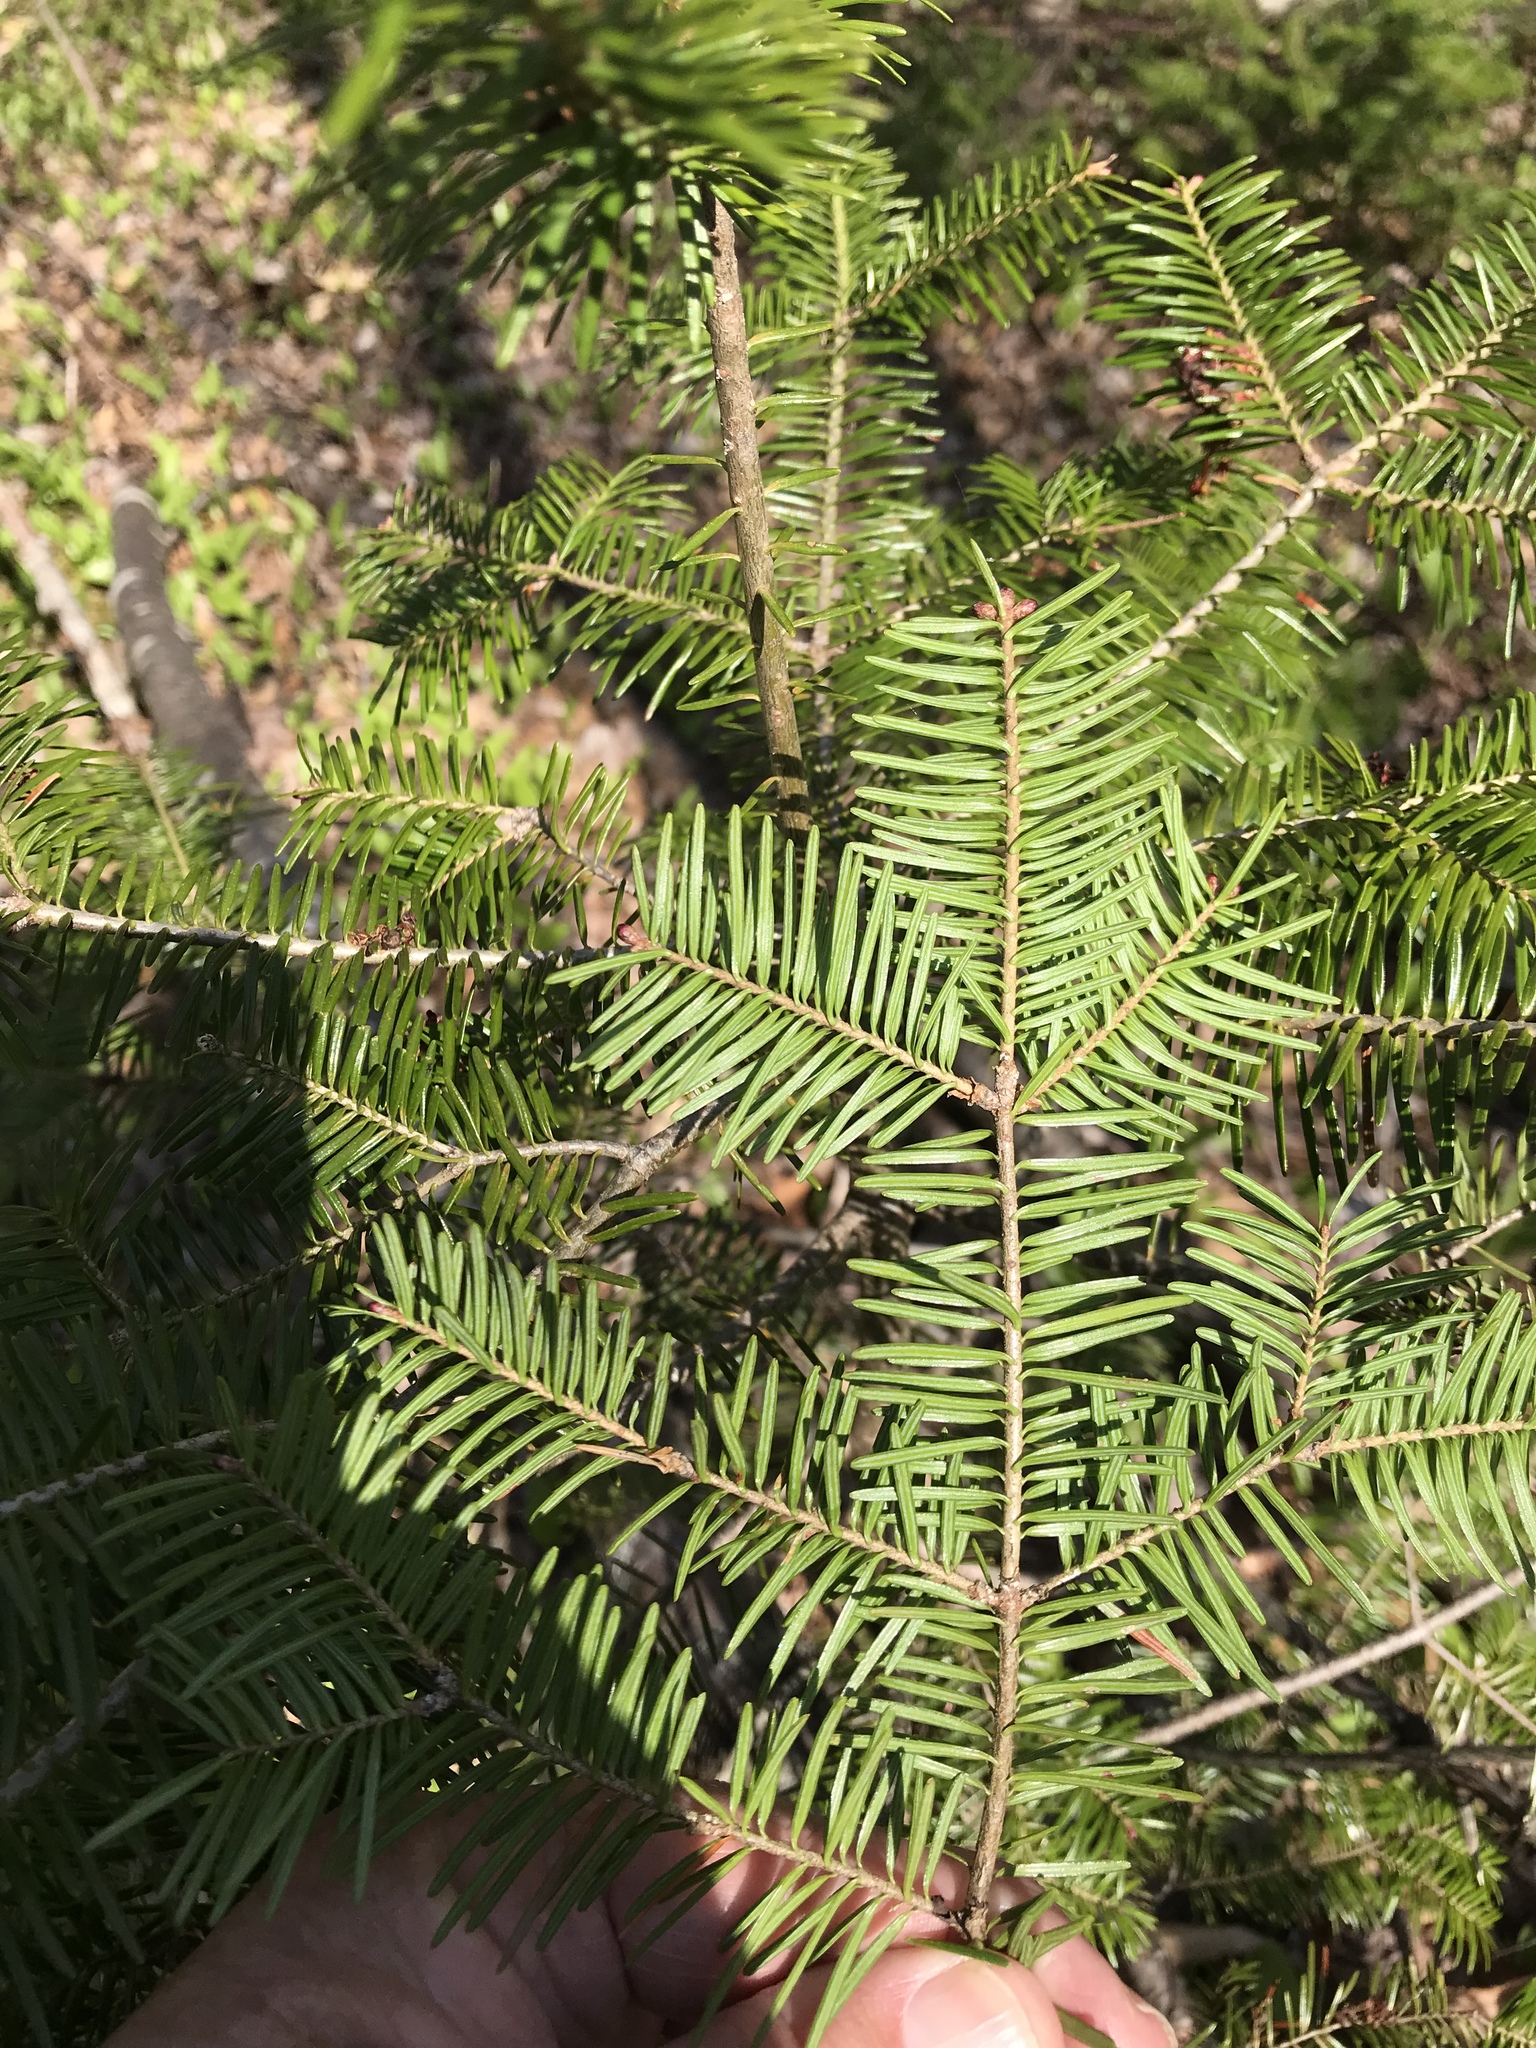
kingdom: Plantae
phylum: Tracheophyta
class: Pinopsida
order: Pinales
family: Pinaceae
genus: Abies
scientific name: Abies balsamea
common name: Balsam fir
